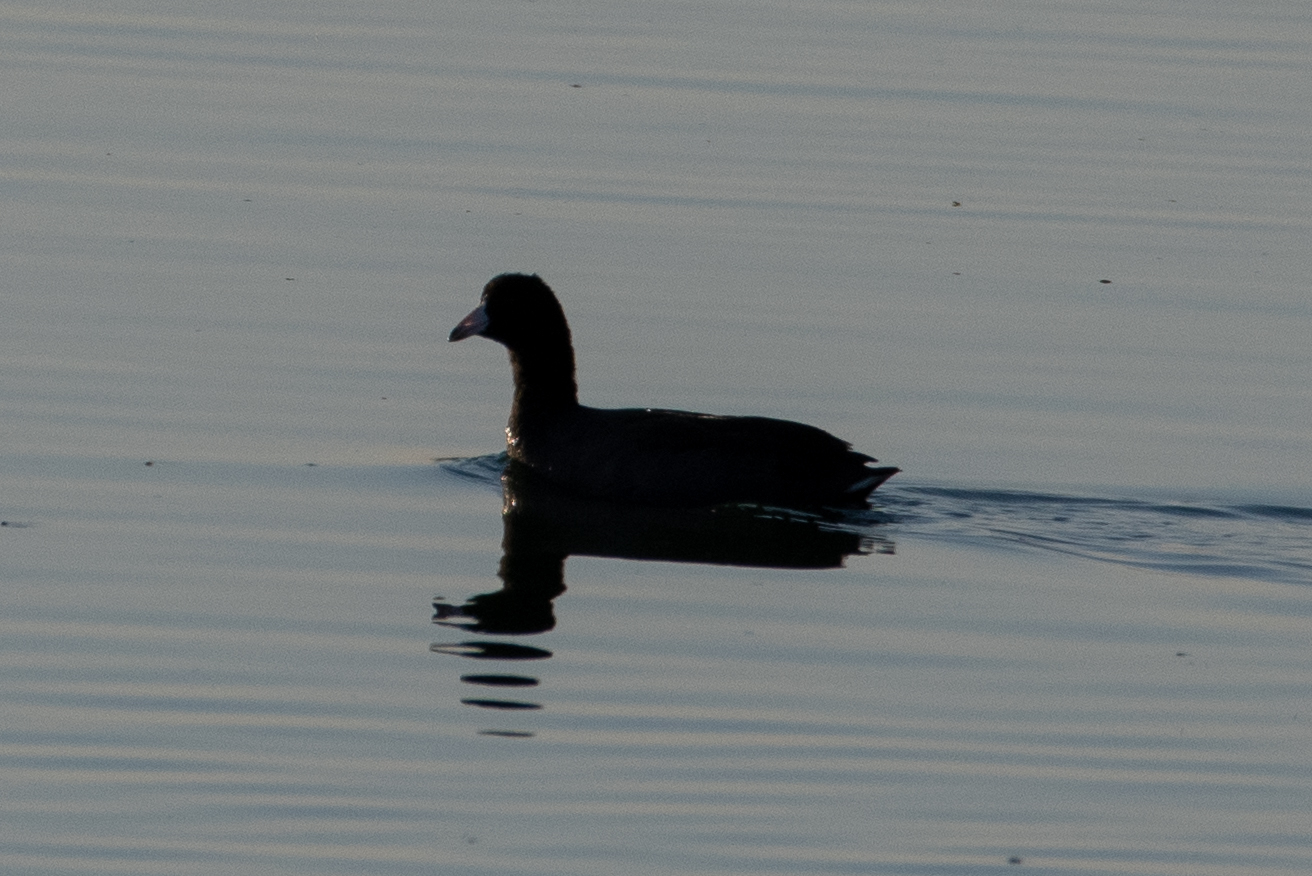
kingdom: Animalia
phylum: Chordata
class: Aves
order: Gruiformes
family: Rallidae
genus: Fulica
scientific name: Fulica americana
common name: American coot
